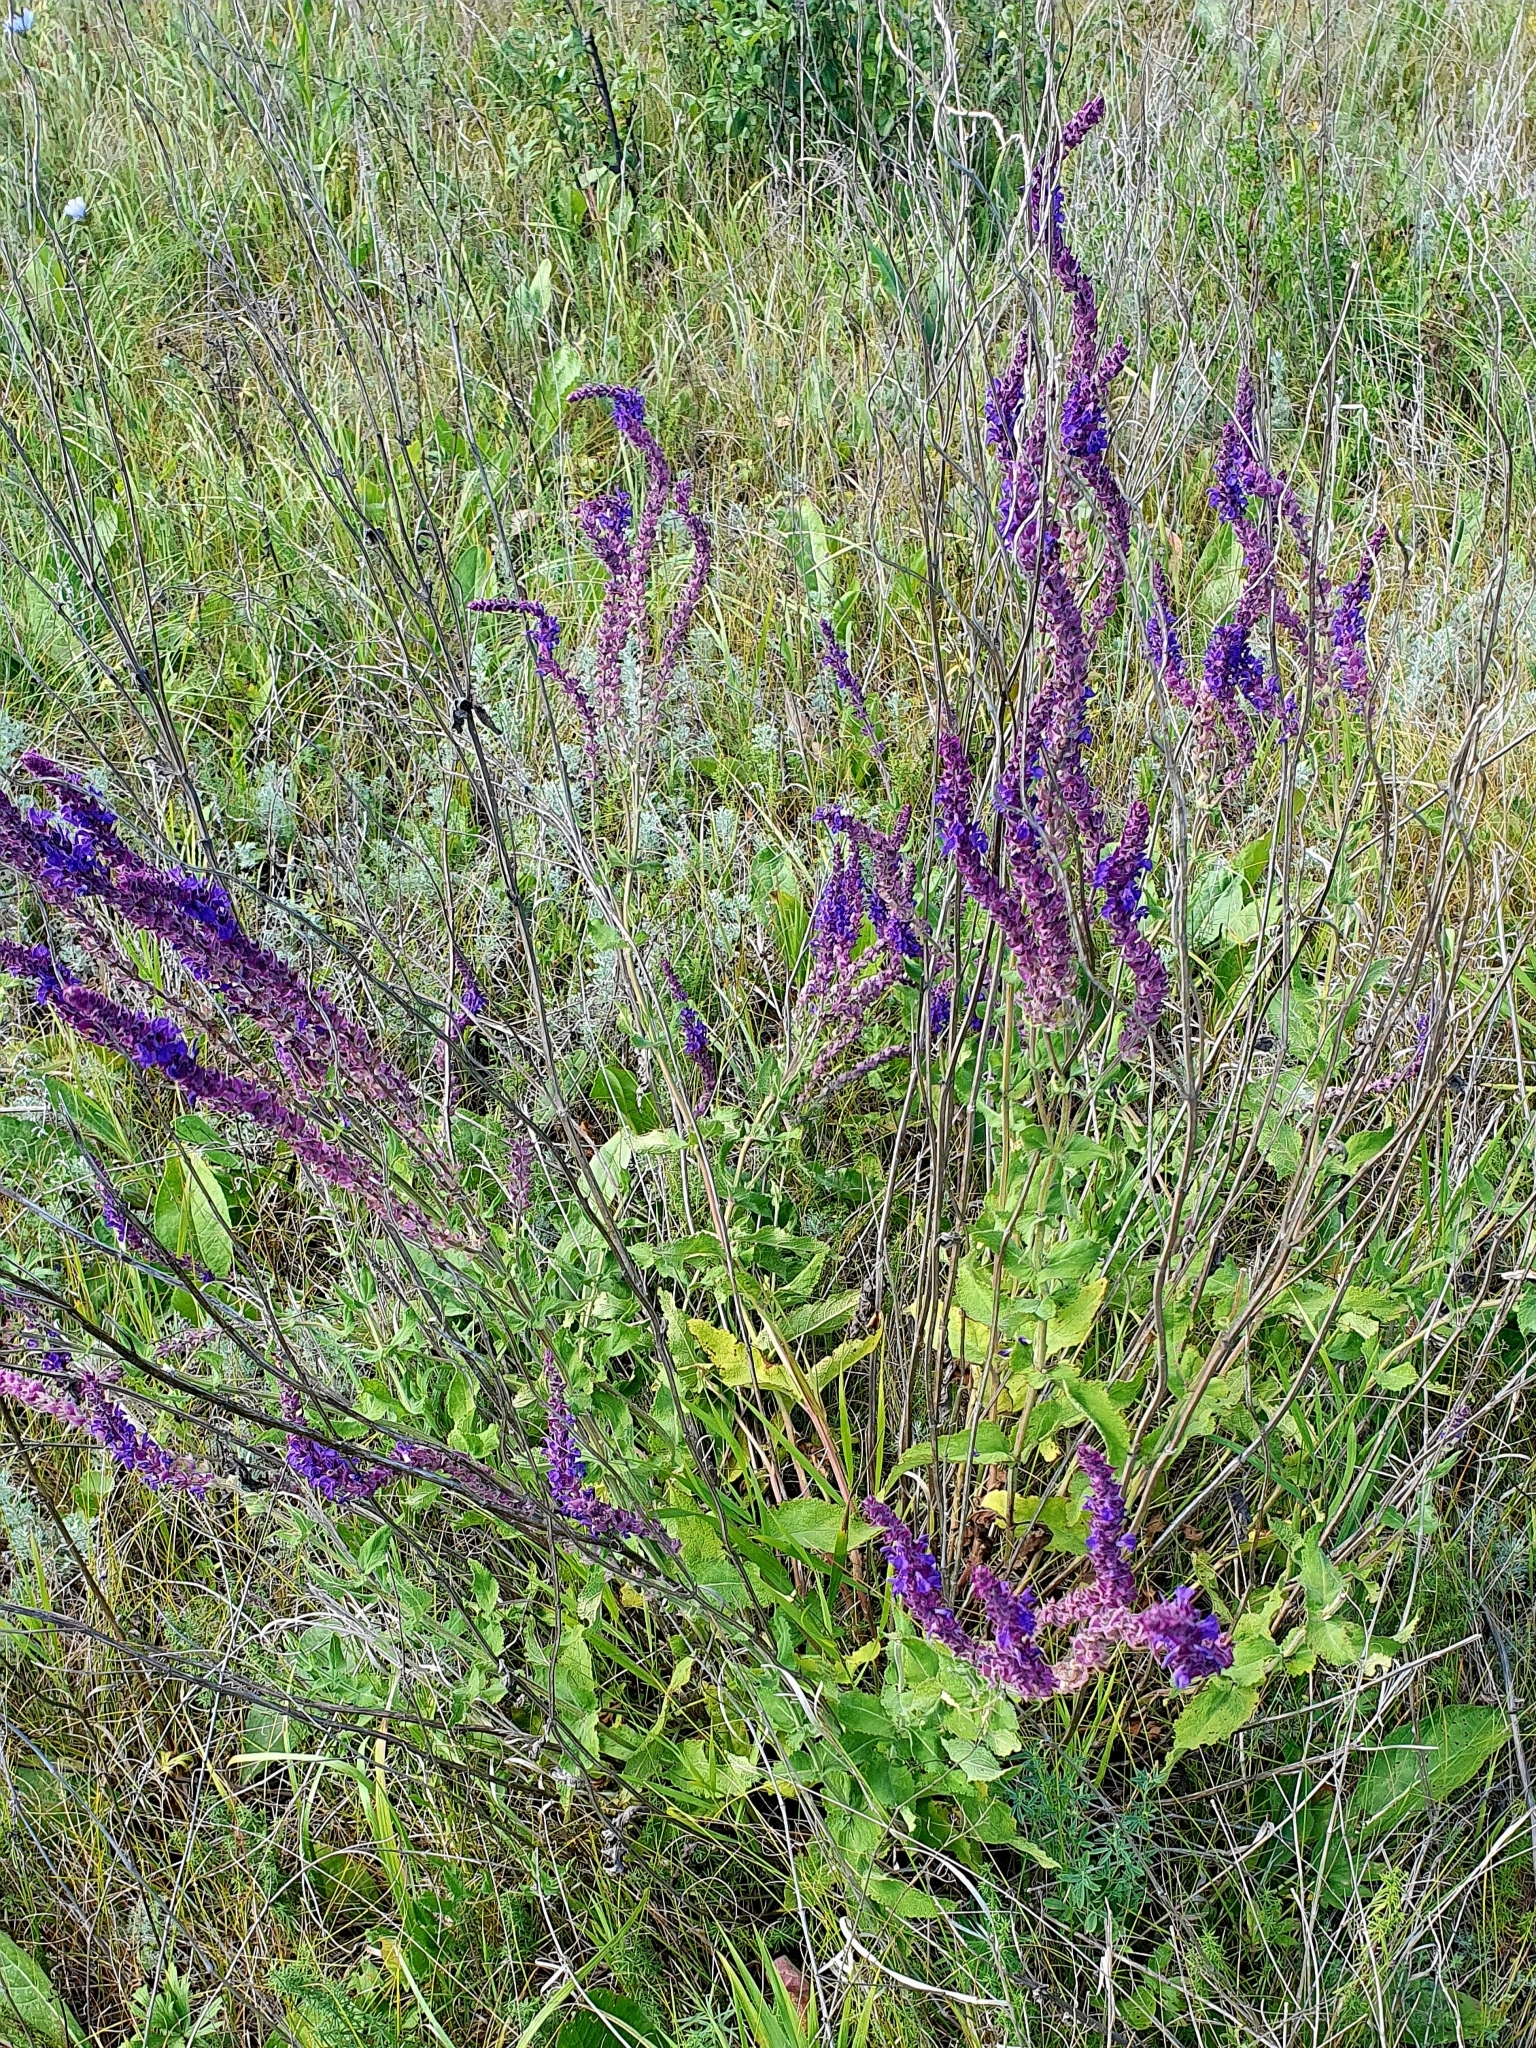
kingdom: Plantae
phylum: Tracheophyta
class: Magnoliopsida
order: Lamiales
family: Lamiaceae
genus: Salvia
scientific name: Salvia nemorosa
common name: Balkan clary
